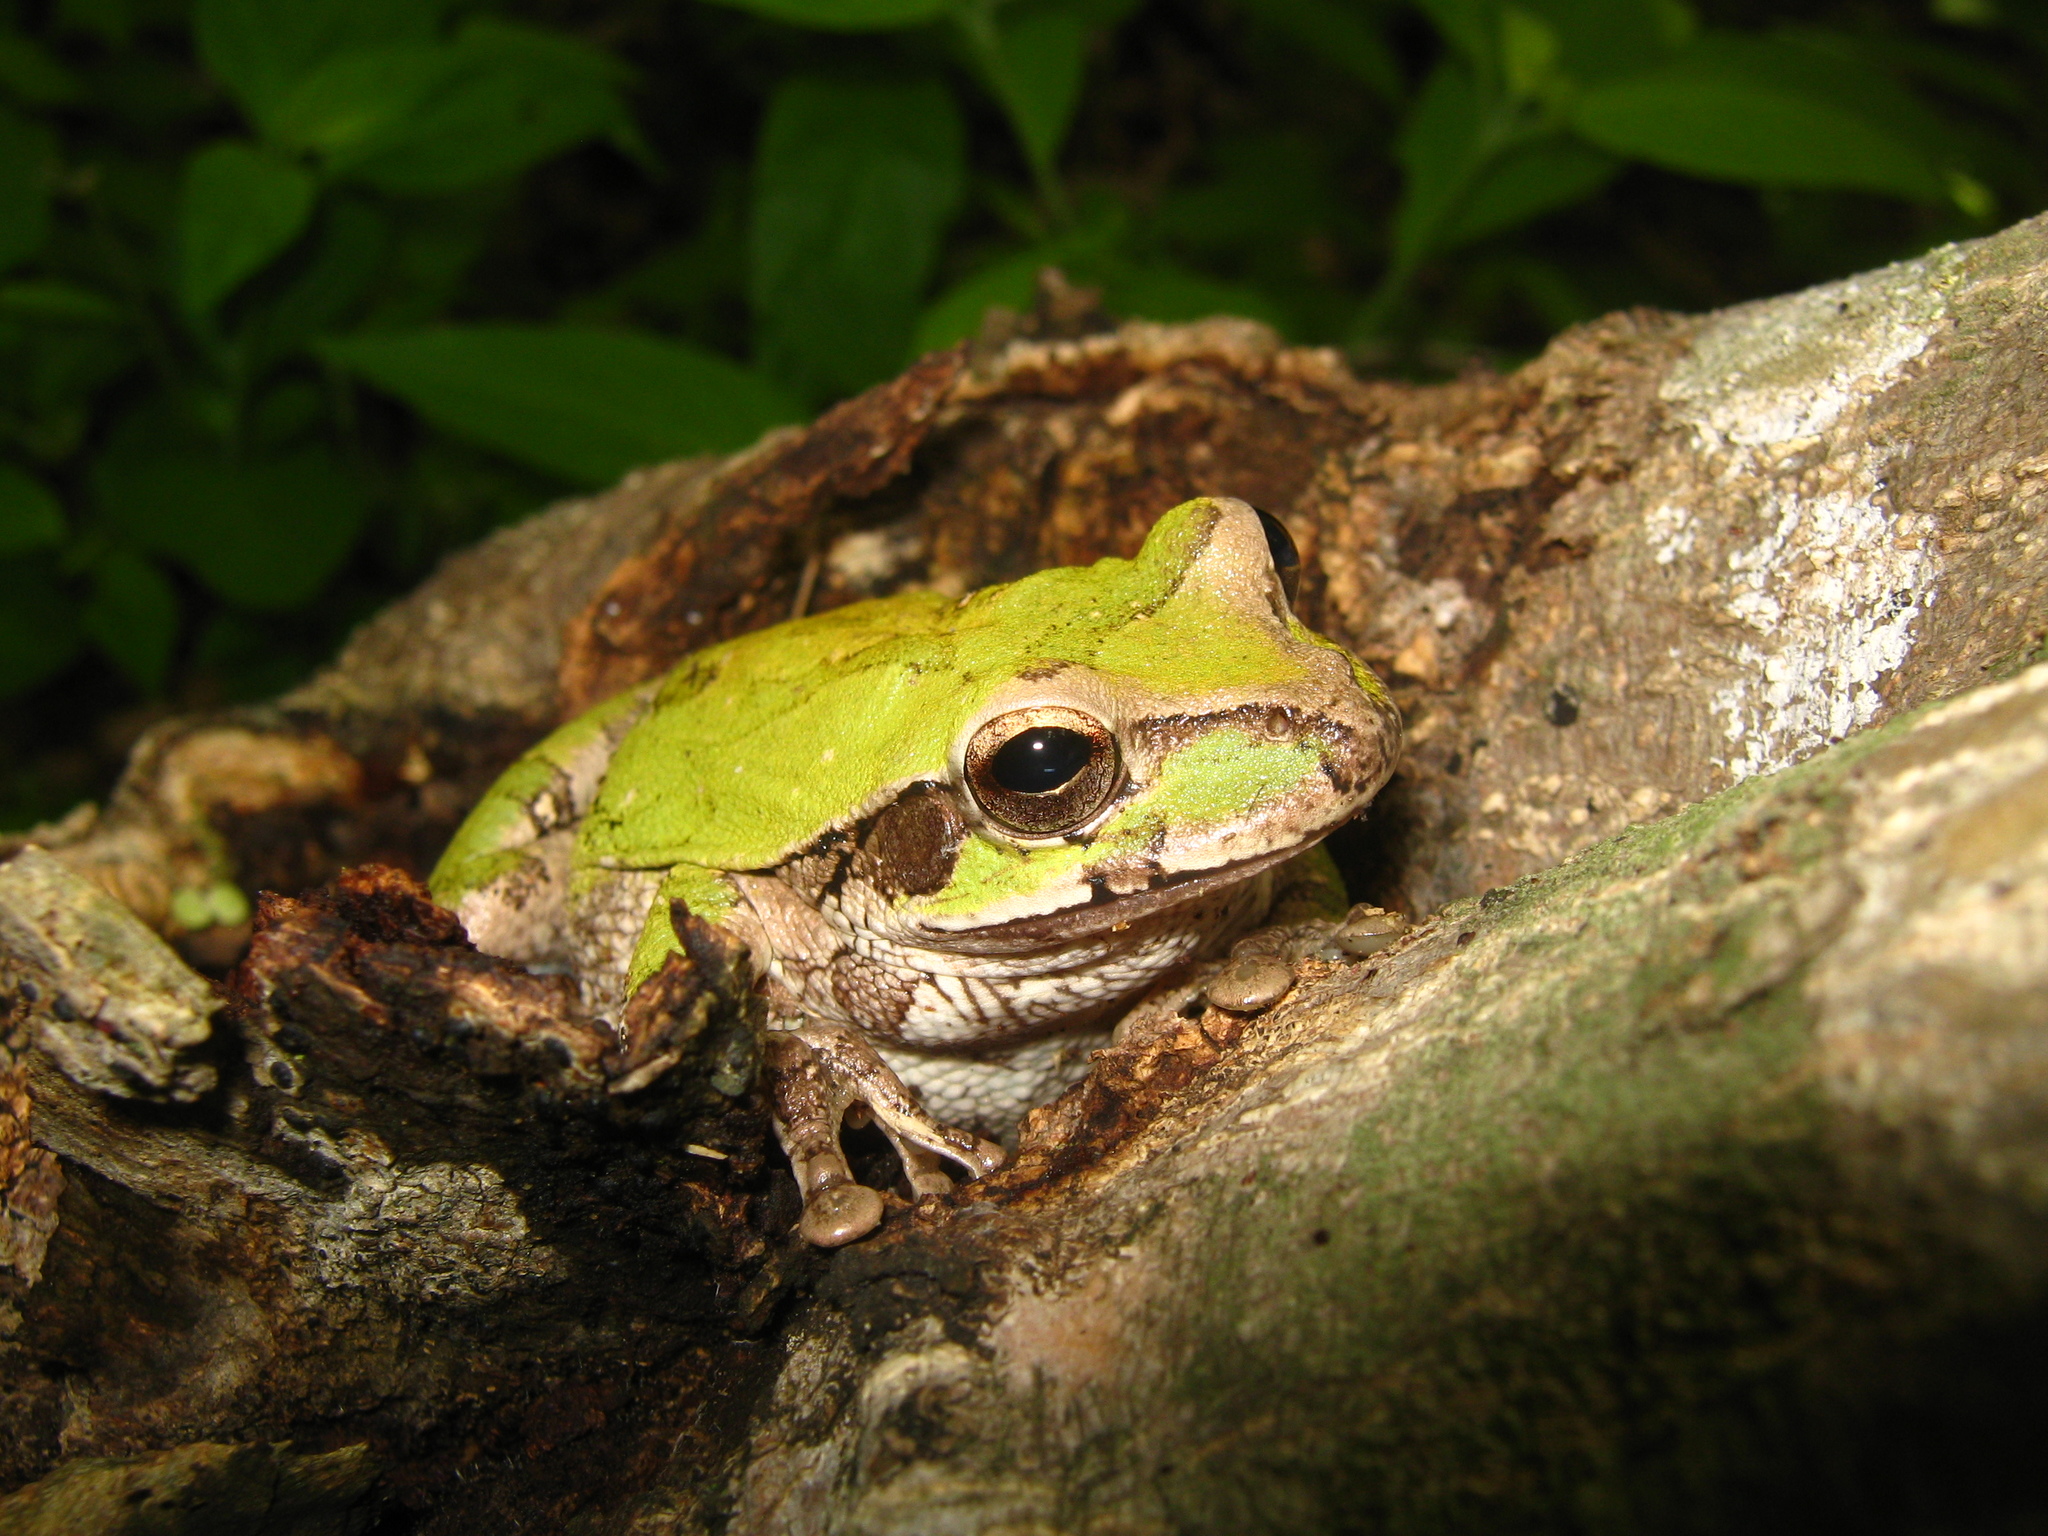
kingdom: Animalia
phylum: Chordata
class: Amphibia
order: Anura
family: Hylidae
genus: Smilisca
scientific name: Smilisca baudinii
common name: Mexican smilisca
